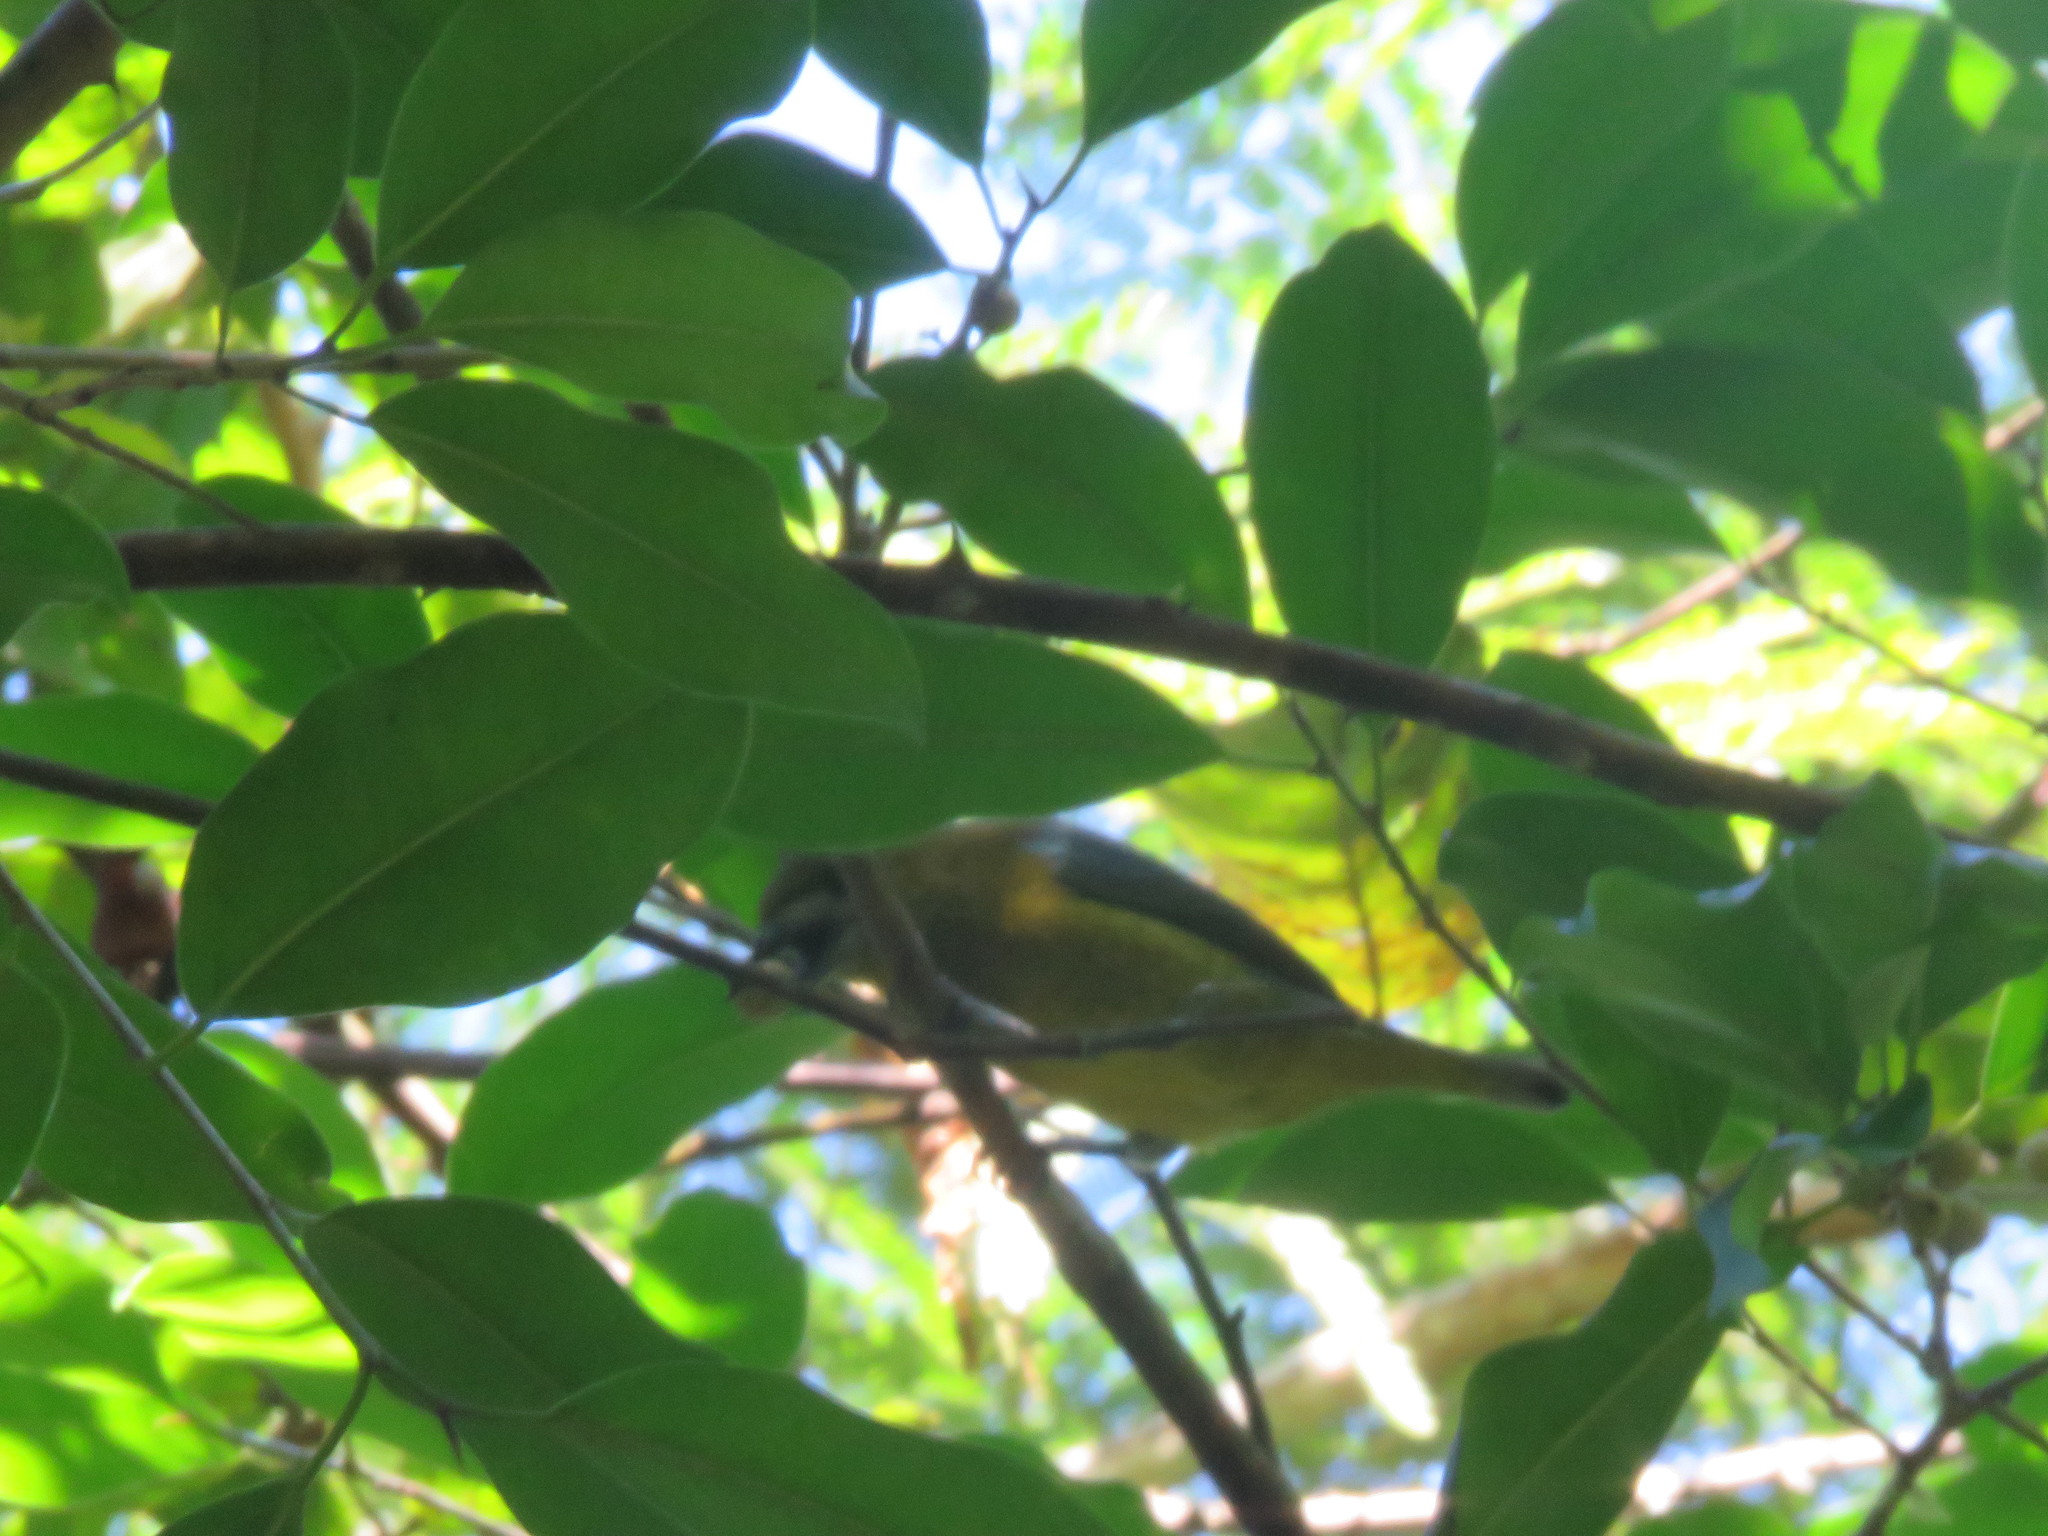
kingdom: Animalia
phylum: Chordata
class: Aves
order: Passeriformes
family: Fringillidae
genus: Euphonia
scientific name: Euphonia chrysopasta
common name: White-lored euphonia
